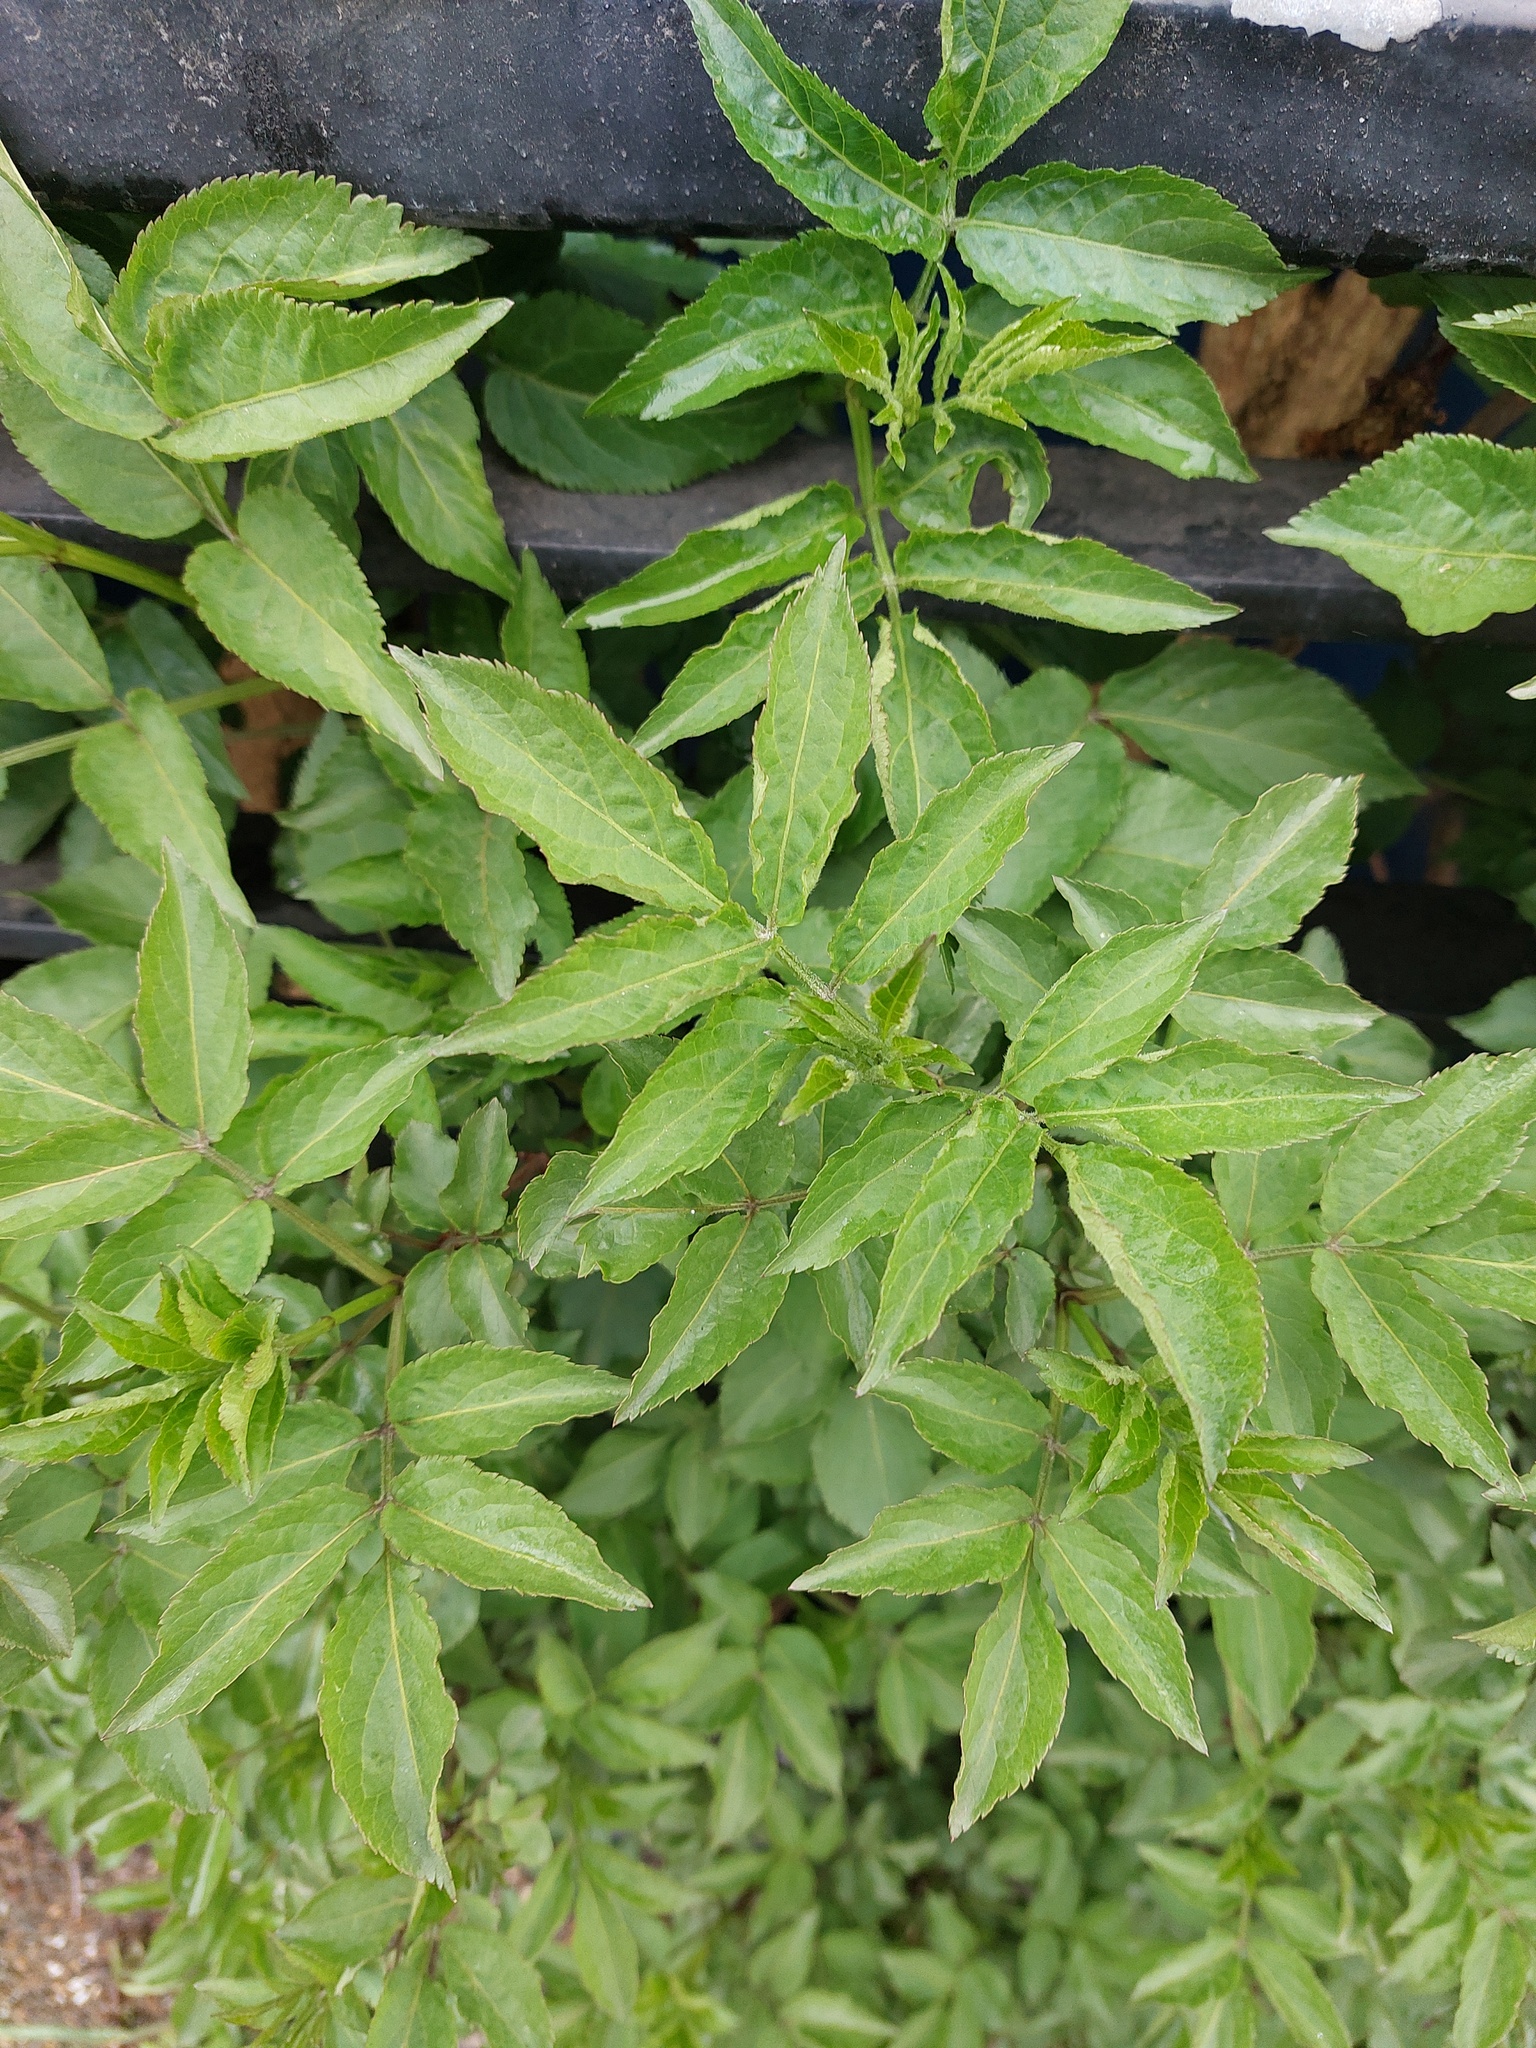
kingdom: Plantae
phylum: Tracheophyta
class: Magnoliopsida
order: Dipsacales
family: Viburnaceae
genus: Sambucus
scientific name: Sambucus nigra
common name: Elder
